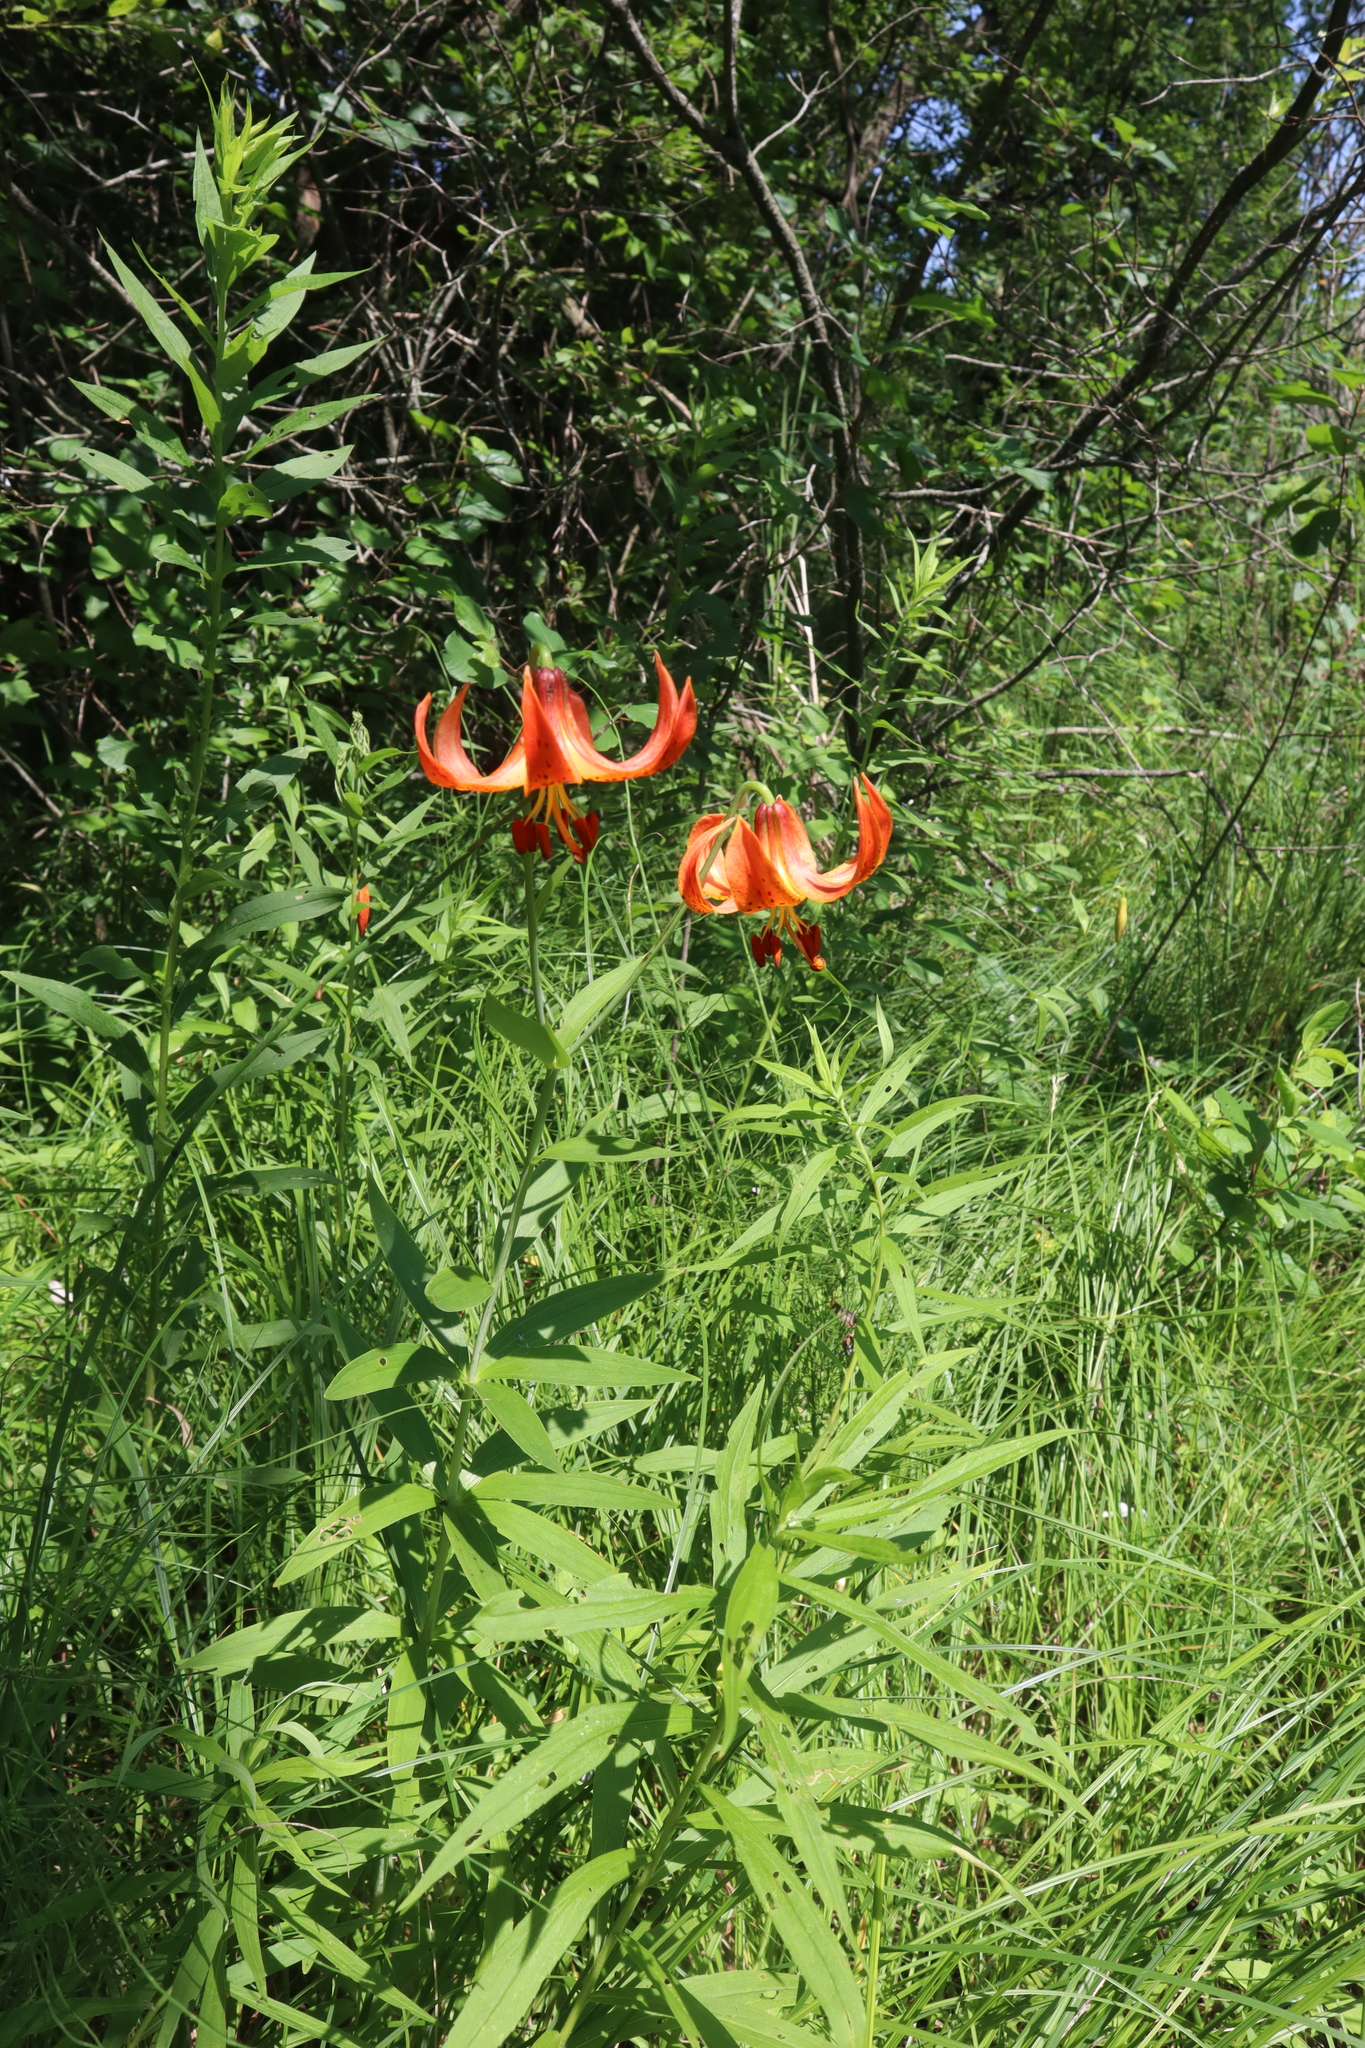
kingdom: Plantae
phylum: Tracheophyta
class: Liliopsida
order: Liliales
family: Liliaceae
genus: Lilium
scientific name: Lilium michiganense
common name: Michigan lily
